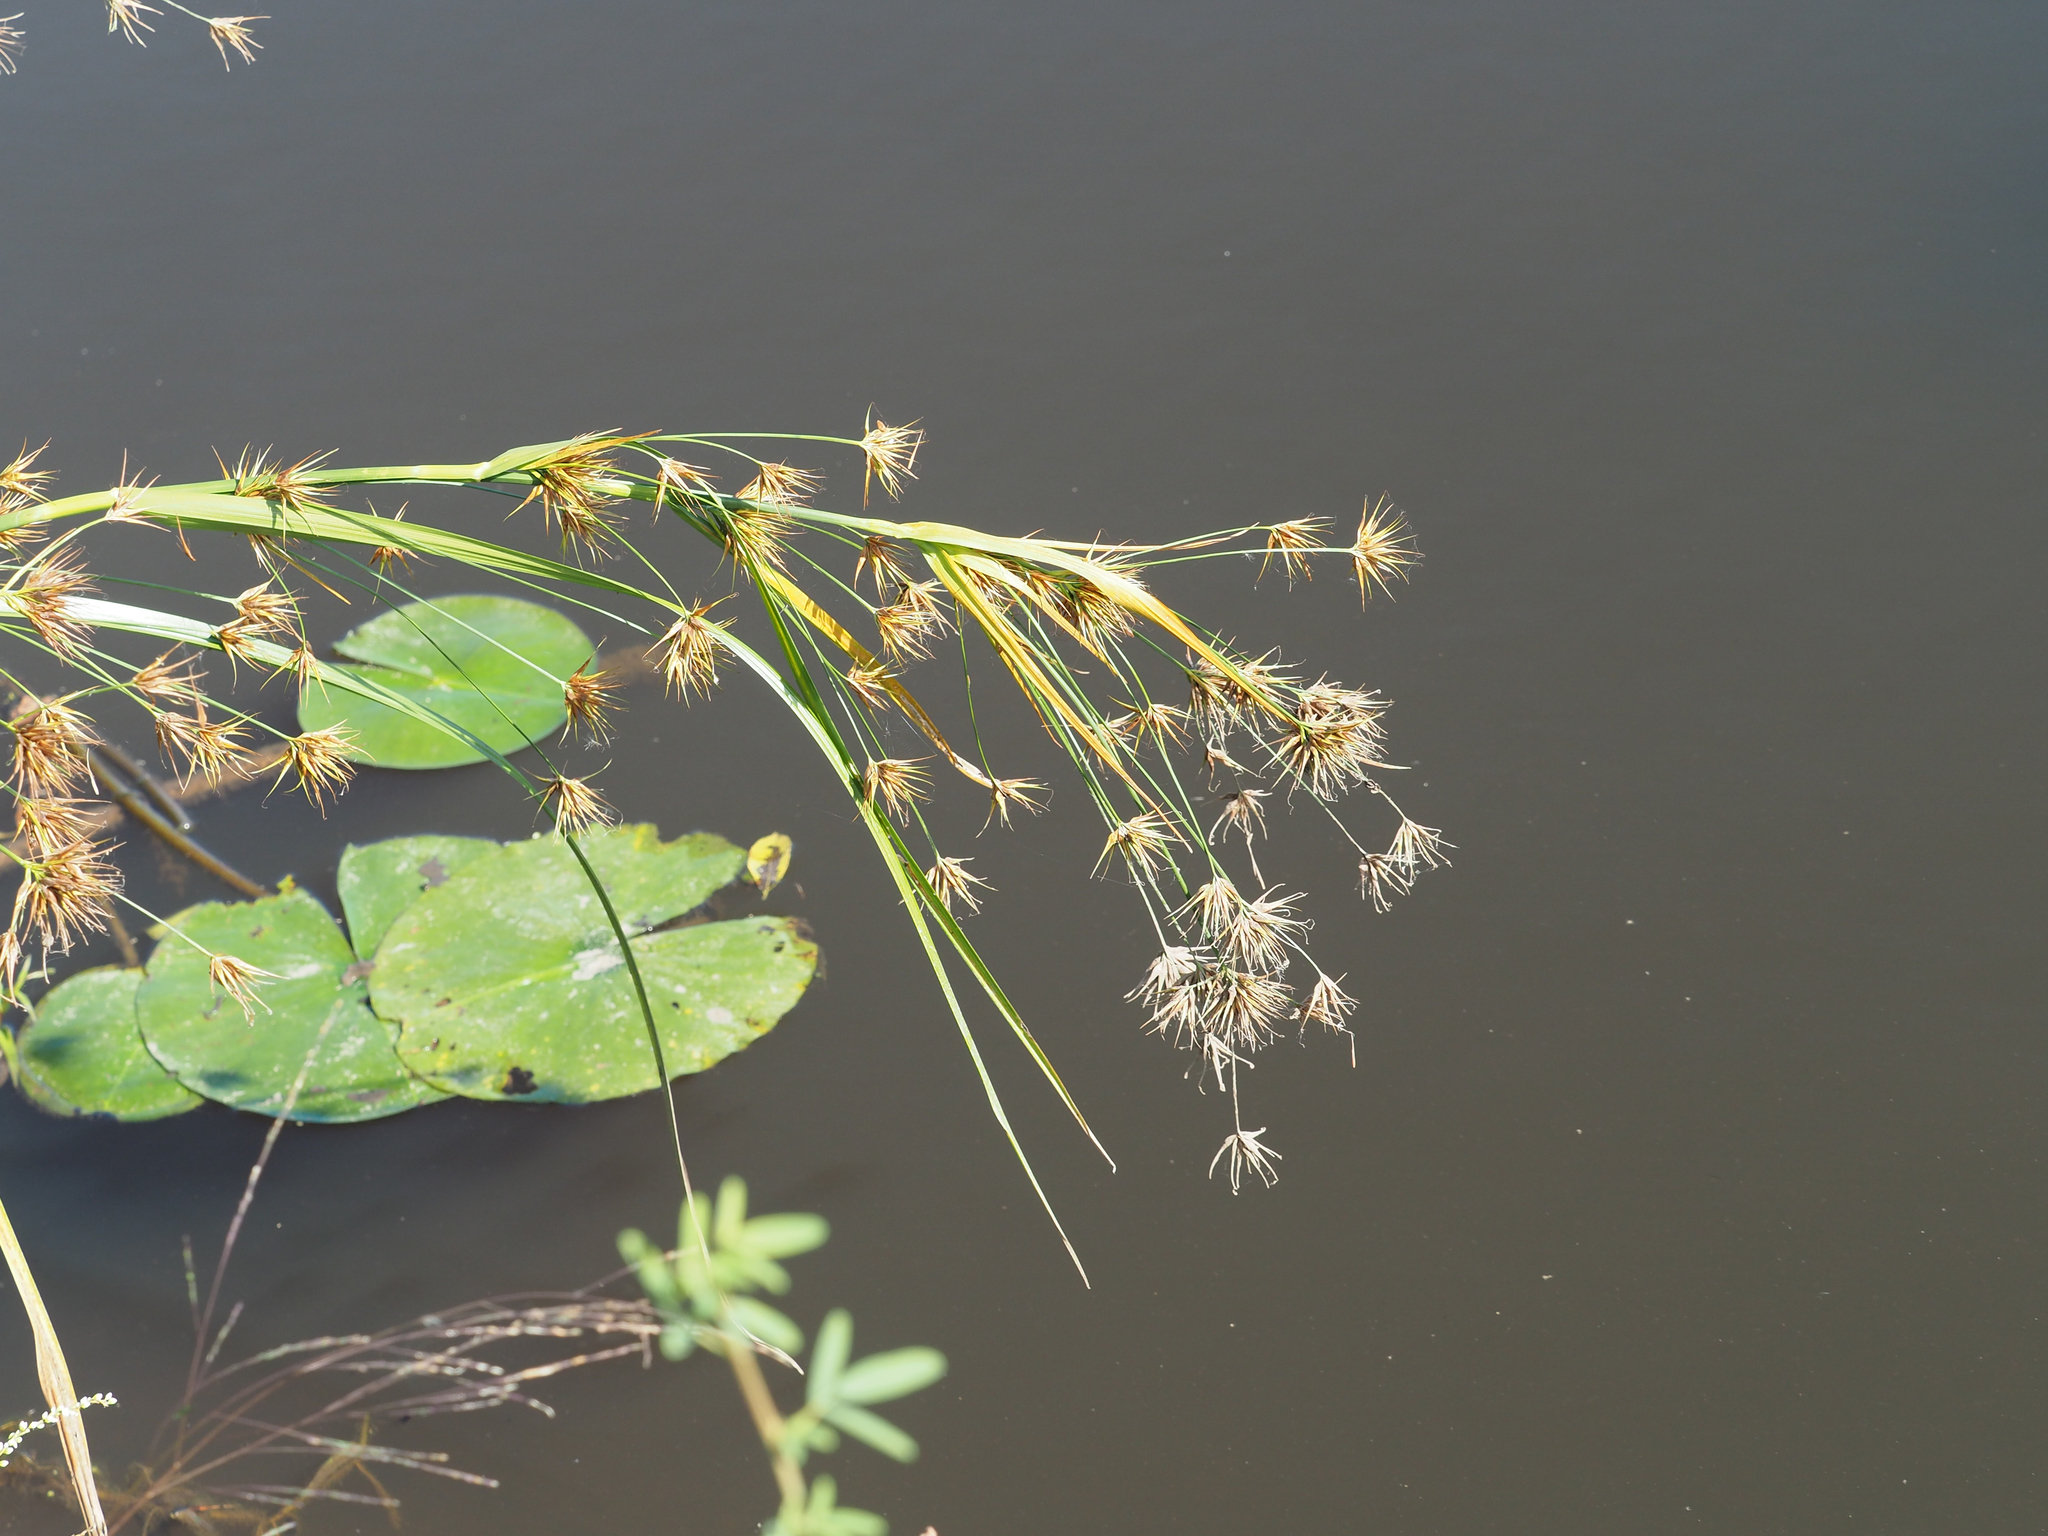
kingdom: Plantae
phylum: Tracheophyta
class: Liliopsida
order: Poales
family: Cyperaceae
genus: Rhynchospora
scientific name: Rhynchospora corniculata
